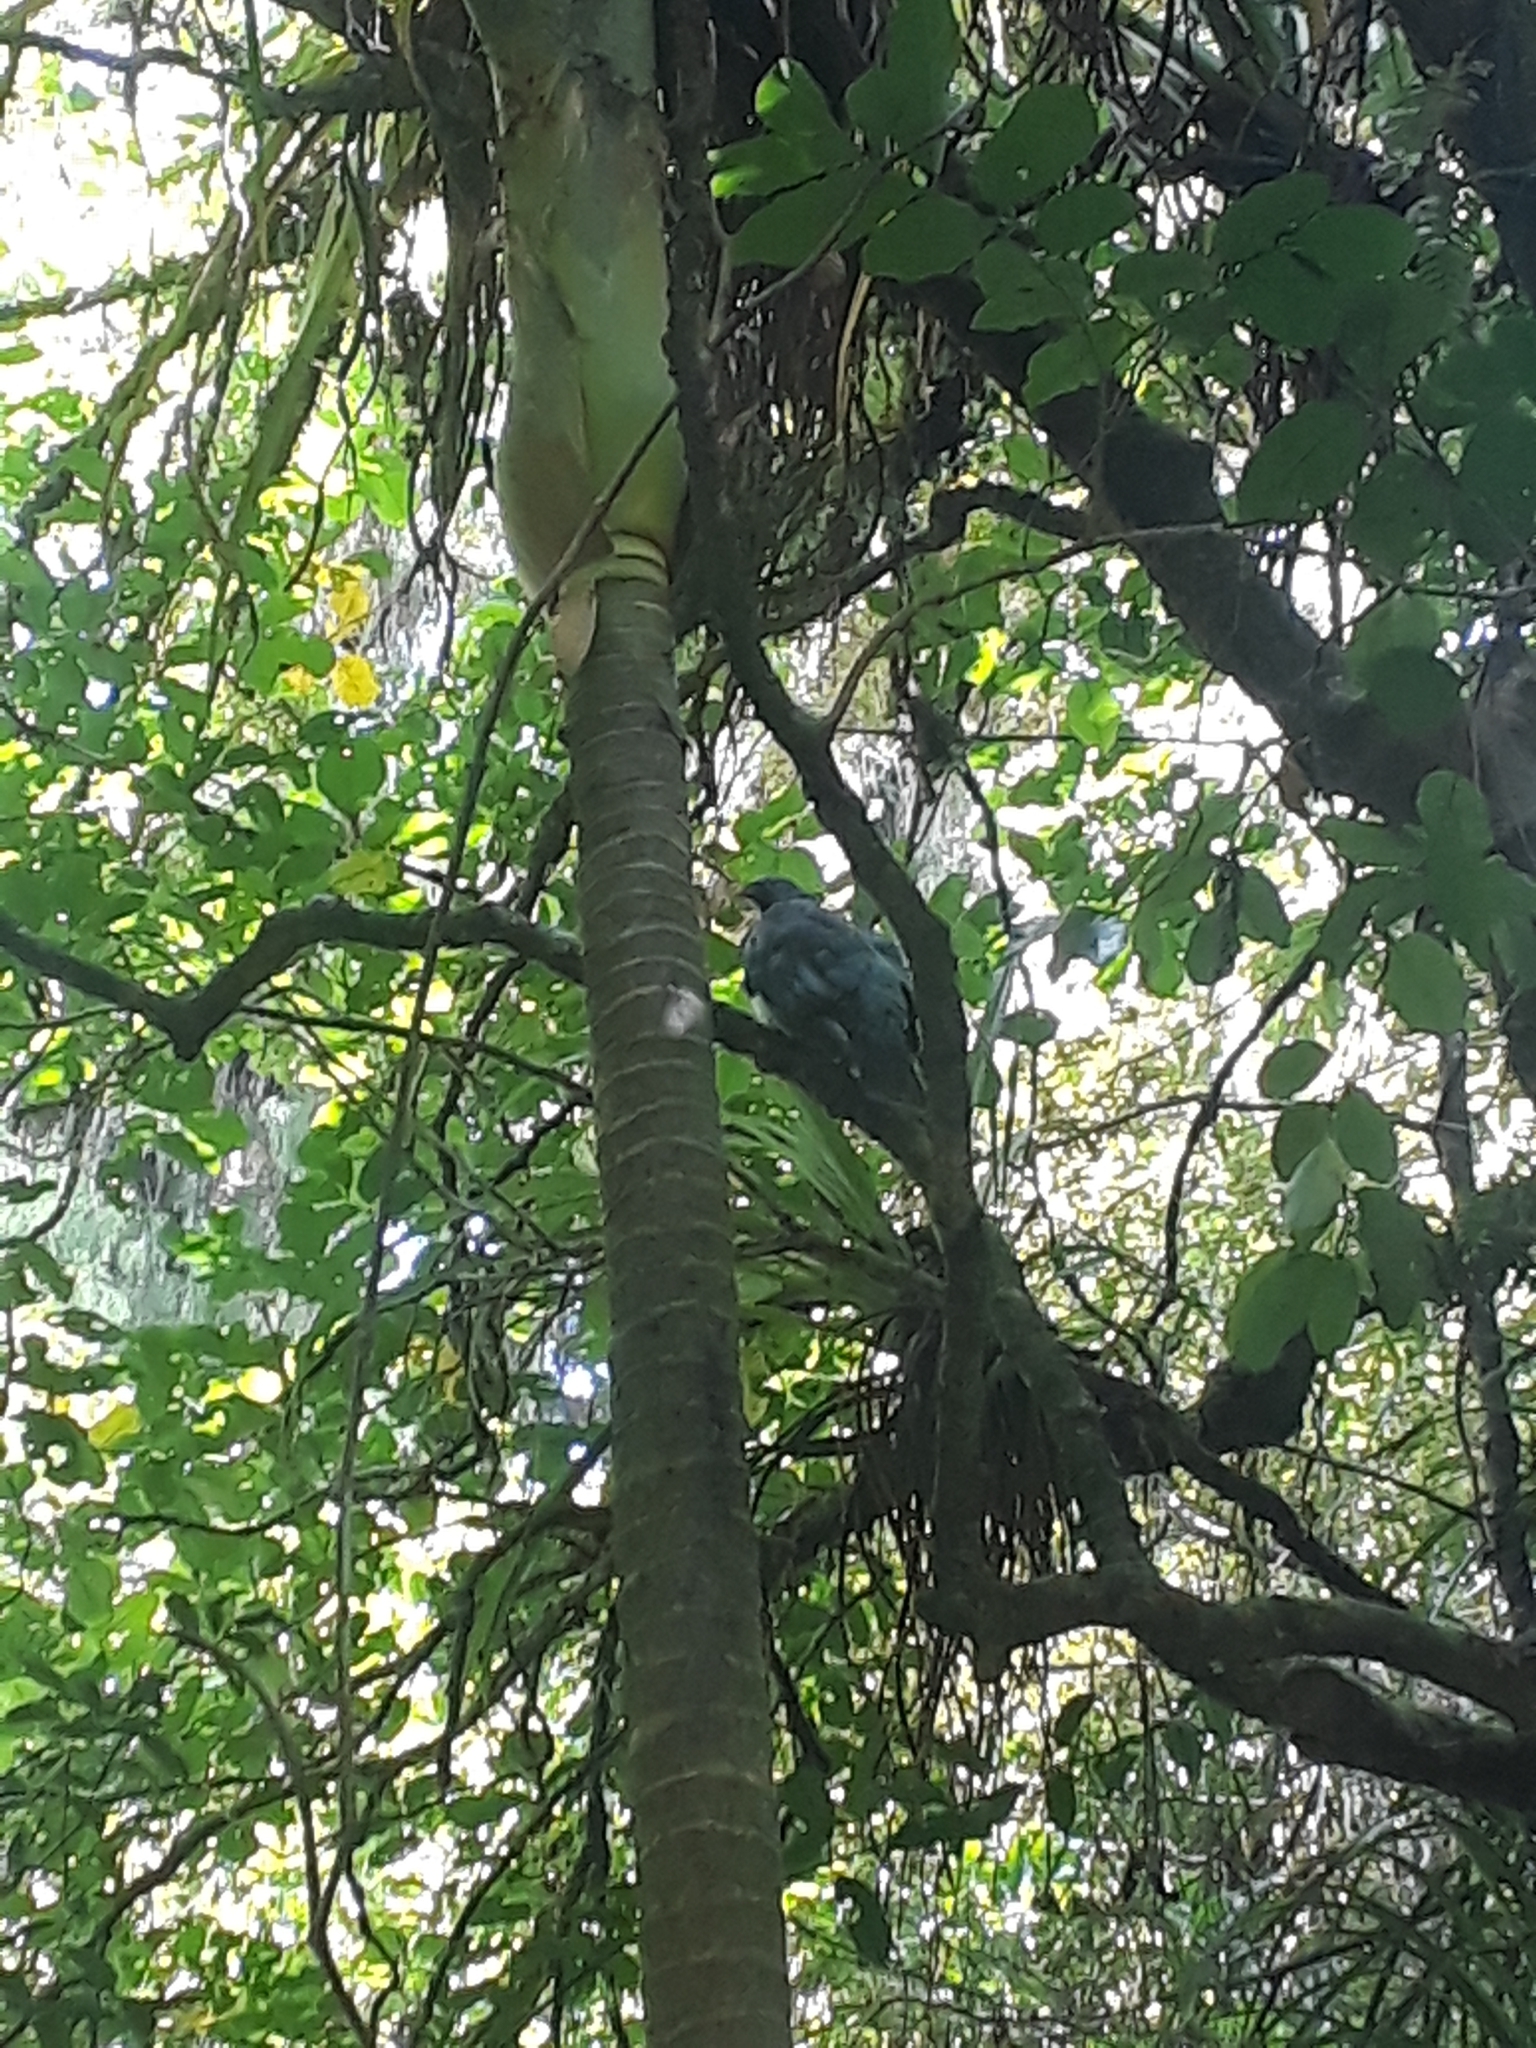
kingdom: Animalia
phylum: Chordata
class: Aves
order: Columbiformes
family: Columbidae
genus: Hemiphaga
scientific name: Hemiphaga novaeseelandiae
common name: New zealand pigeon
